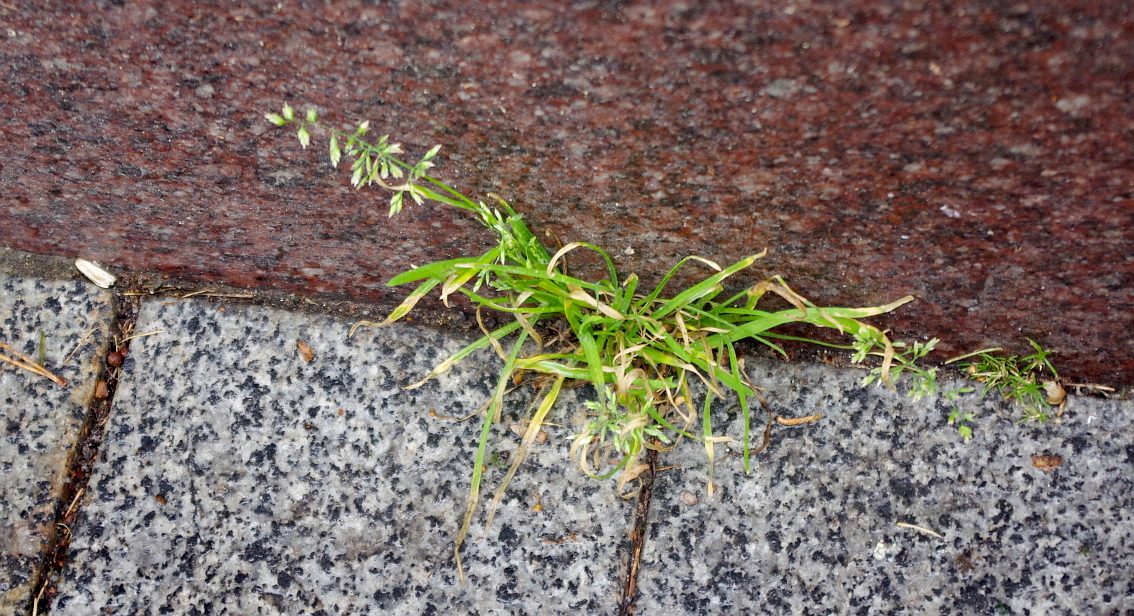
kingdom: Plantae
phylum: Tracheophyta
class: Liliopsida
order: Poales
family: Poaceae
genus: Poa
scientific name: Poa annua
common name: Annual bluegrass
